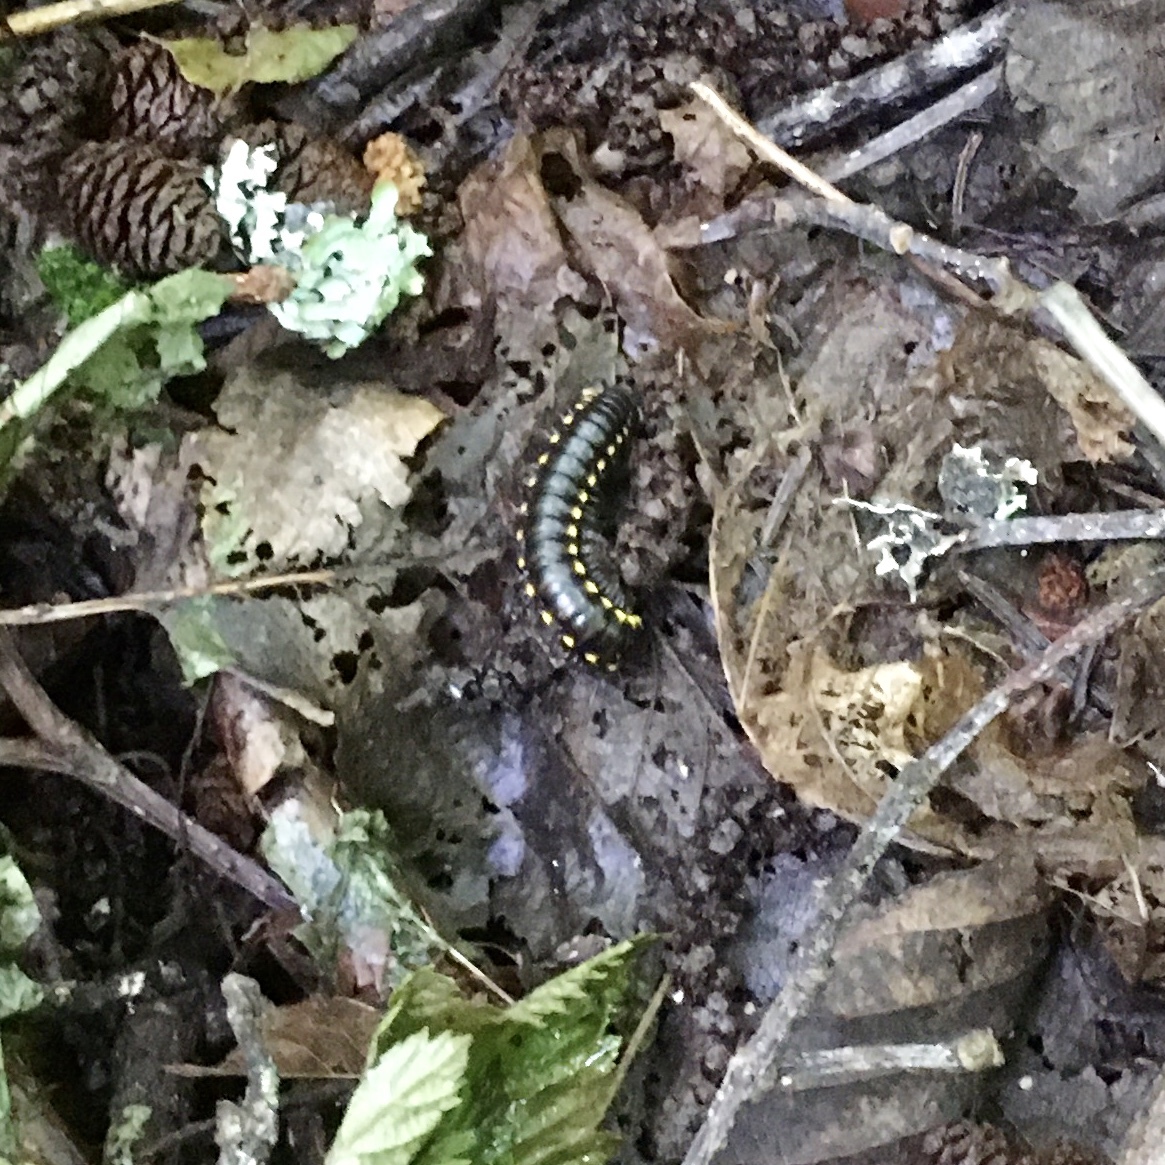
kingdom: Animalia
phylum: Arthropoda
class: Diplopoda
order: Polydesmida
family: Xystodesmidae
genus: Harpaphe
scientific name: Harpaphe haydeniana
